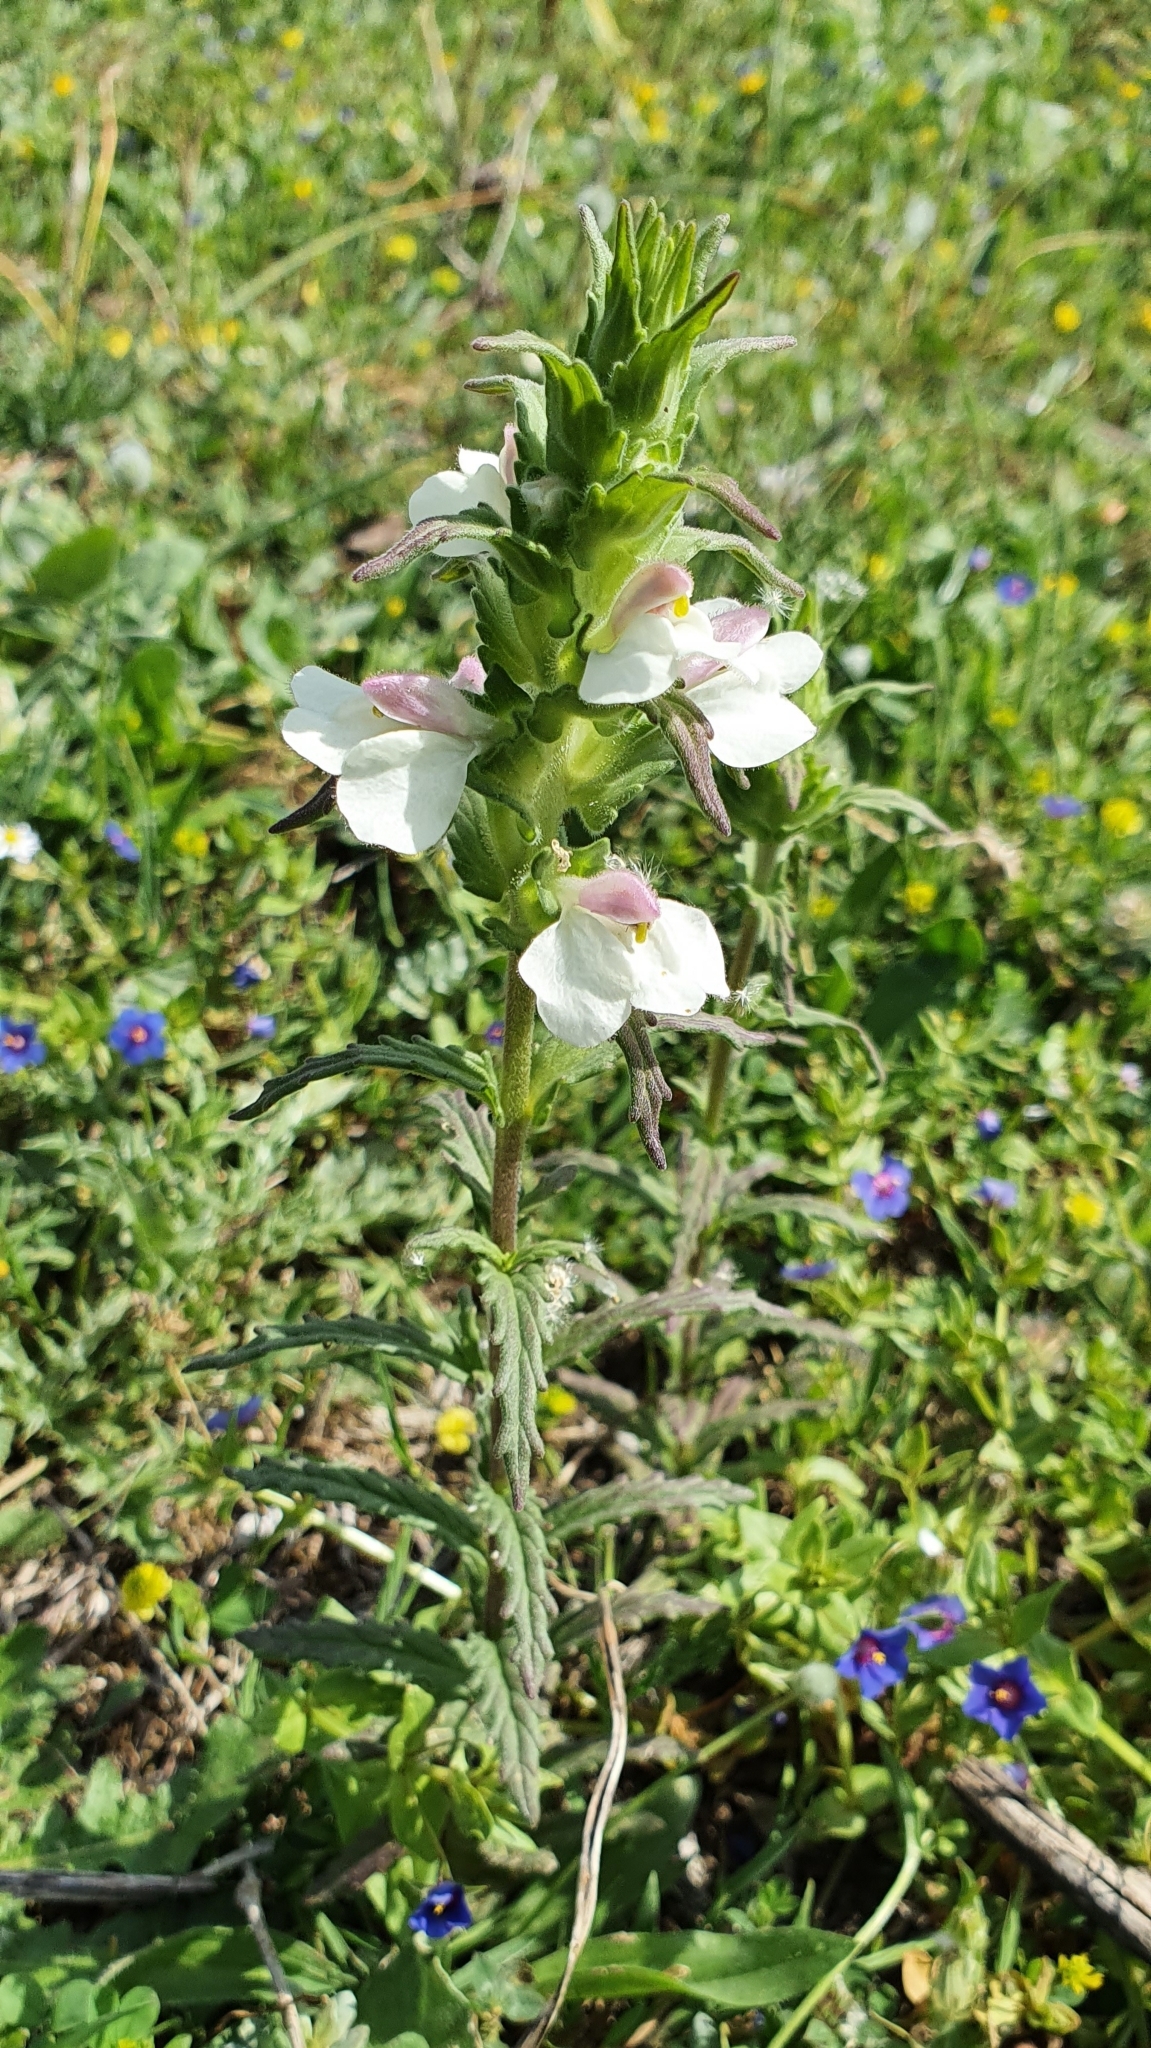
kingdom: Plantae
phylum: Tracheophyta
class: Magnoliopsida
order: Lamiales
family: Orobanchaceae
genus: Bellardia
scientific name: Bellardia trixago
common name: Mediterranean lineseed
